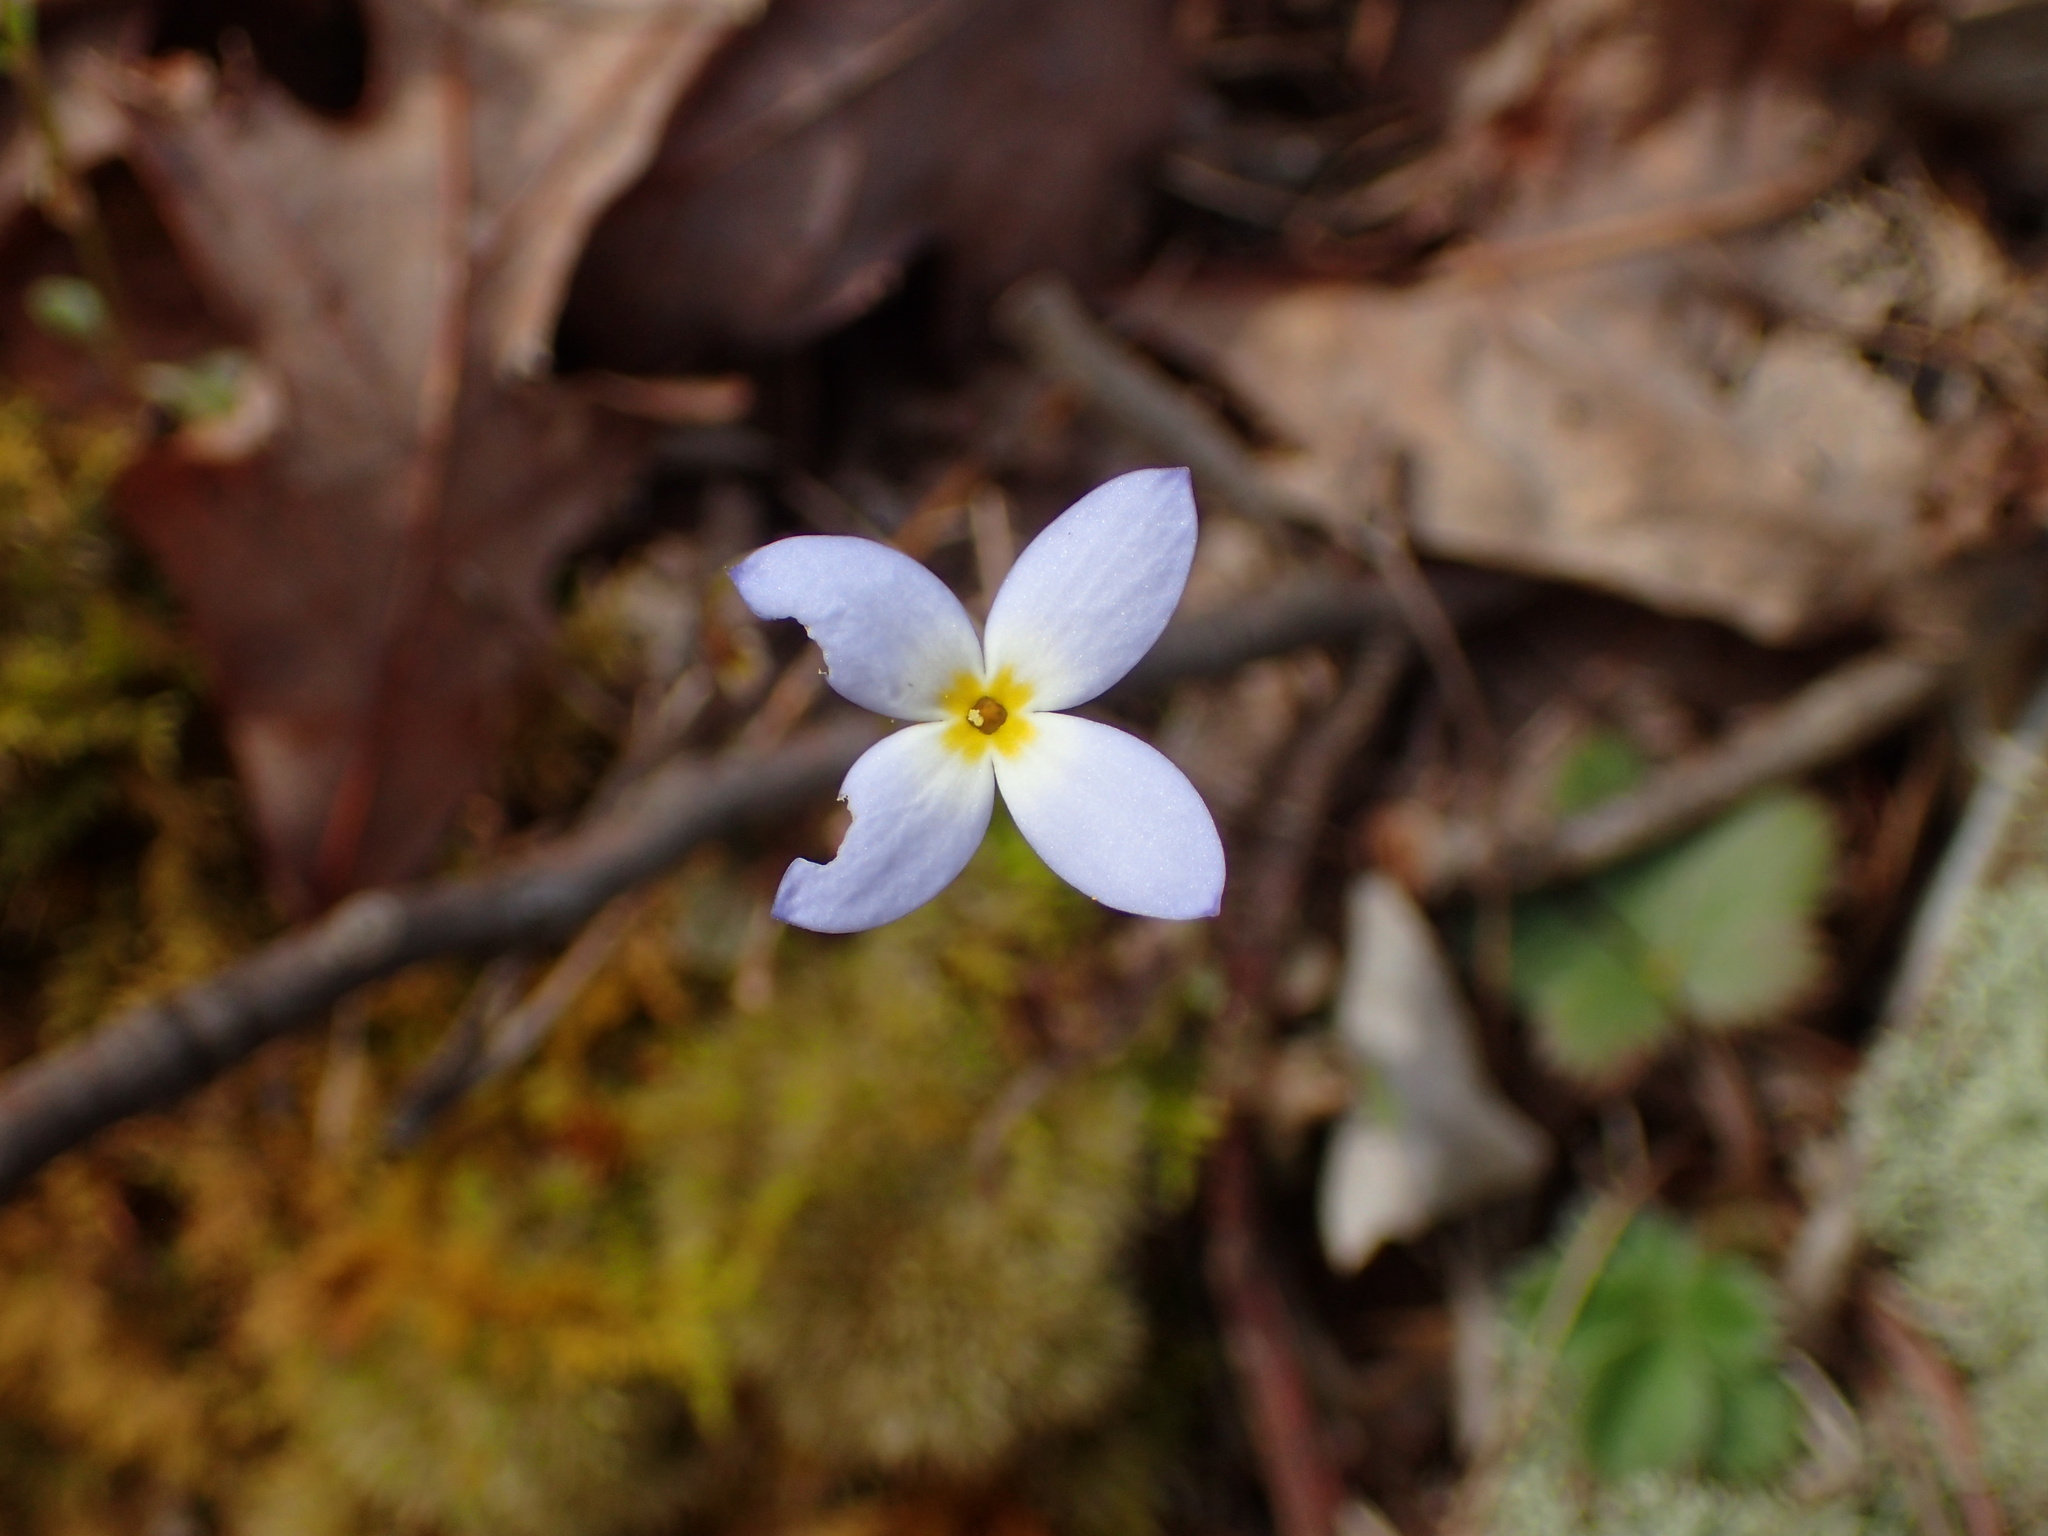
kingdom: Plantae
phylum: Tracheophyta
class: Magnoliopsida
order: Gentianales
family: Rubiaceae
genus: Houstonia
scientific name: Houstonia caerulea
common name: Bluets
